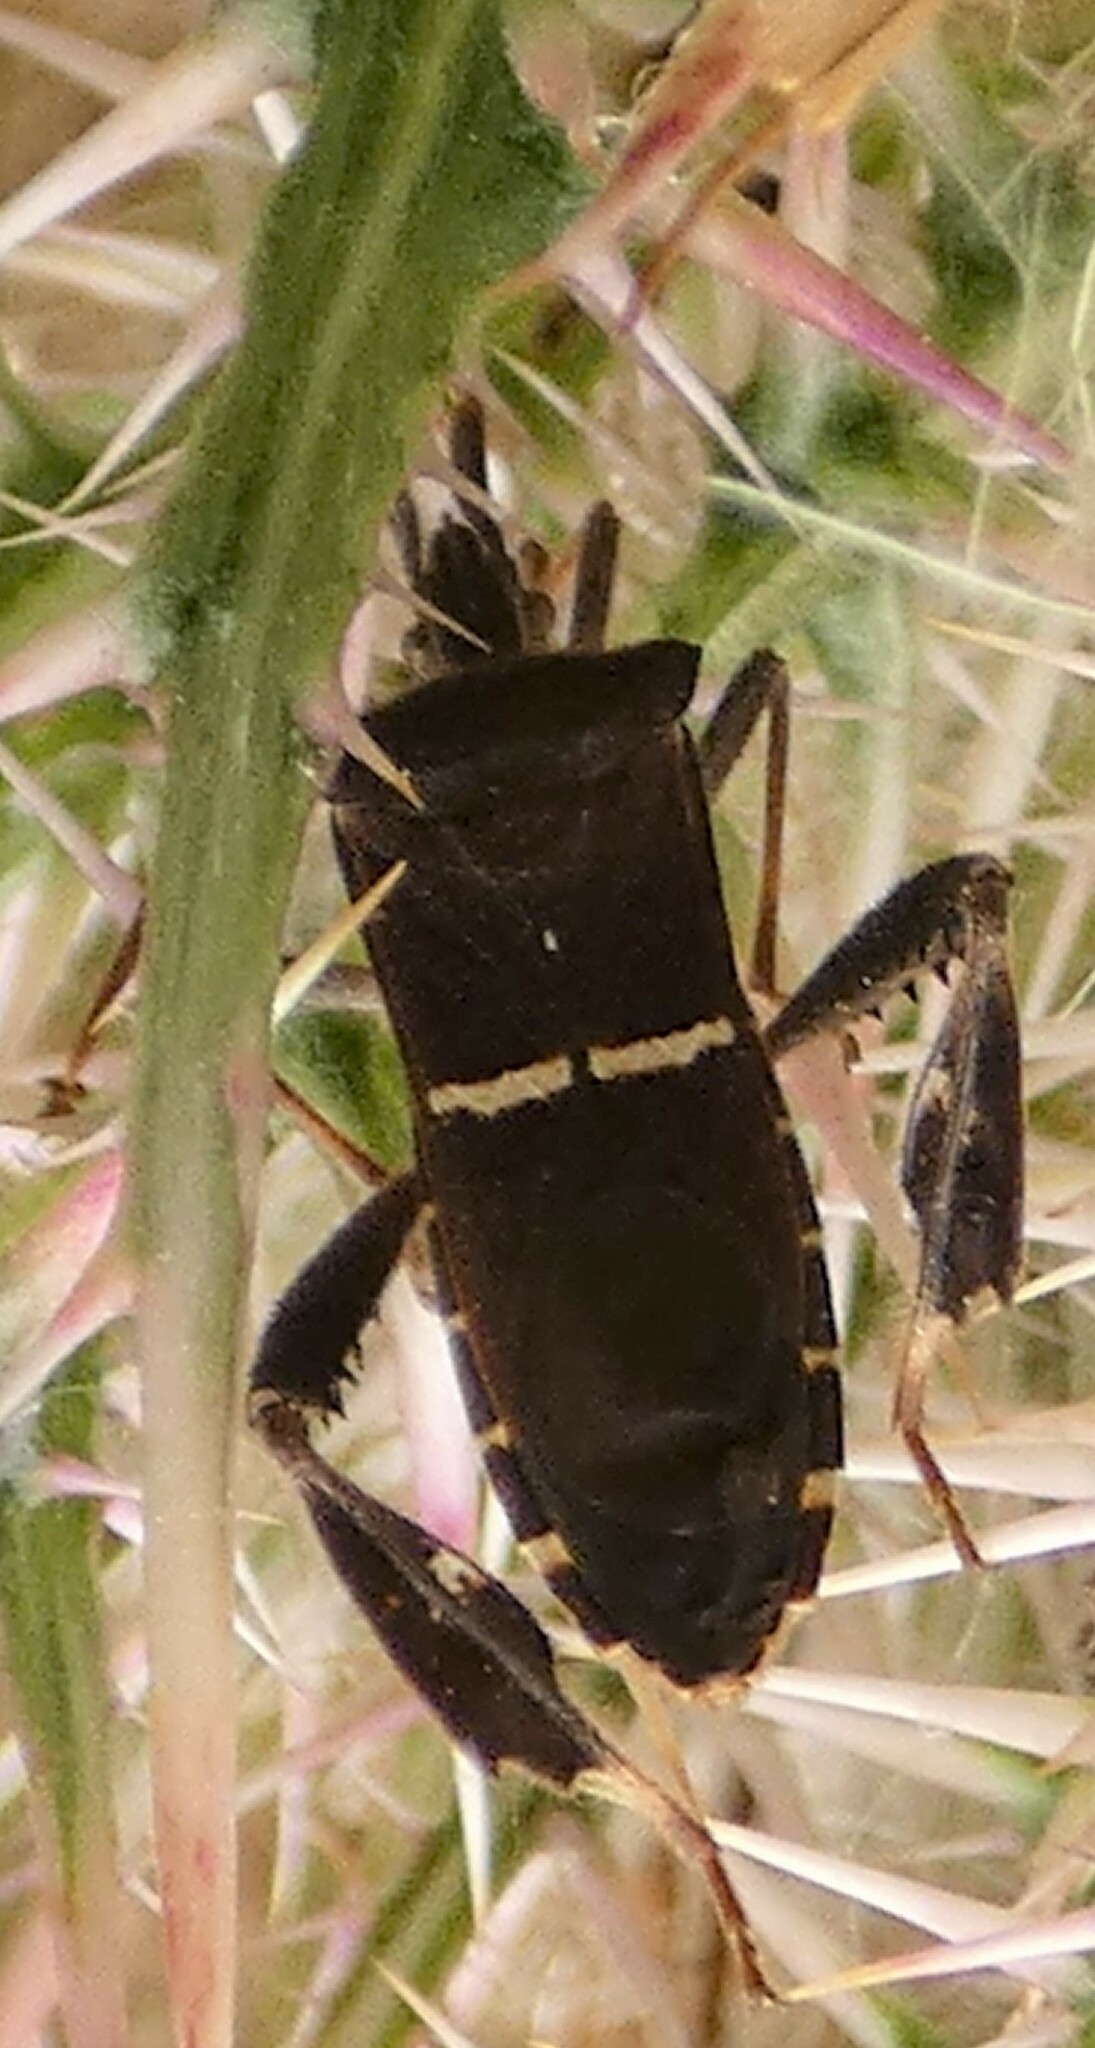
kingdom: Animalia
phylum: Arthropoda
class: Insecta
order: Hemiptera
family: Coreidae
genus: Leptoglossus
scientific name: Leptoglossus phyllopus
